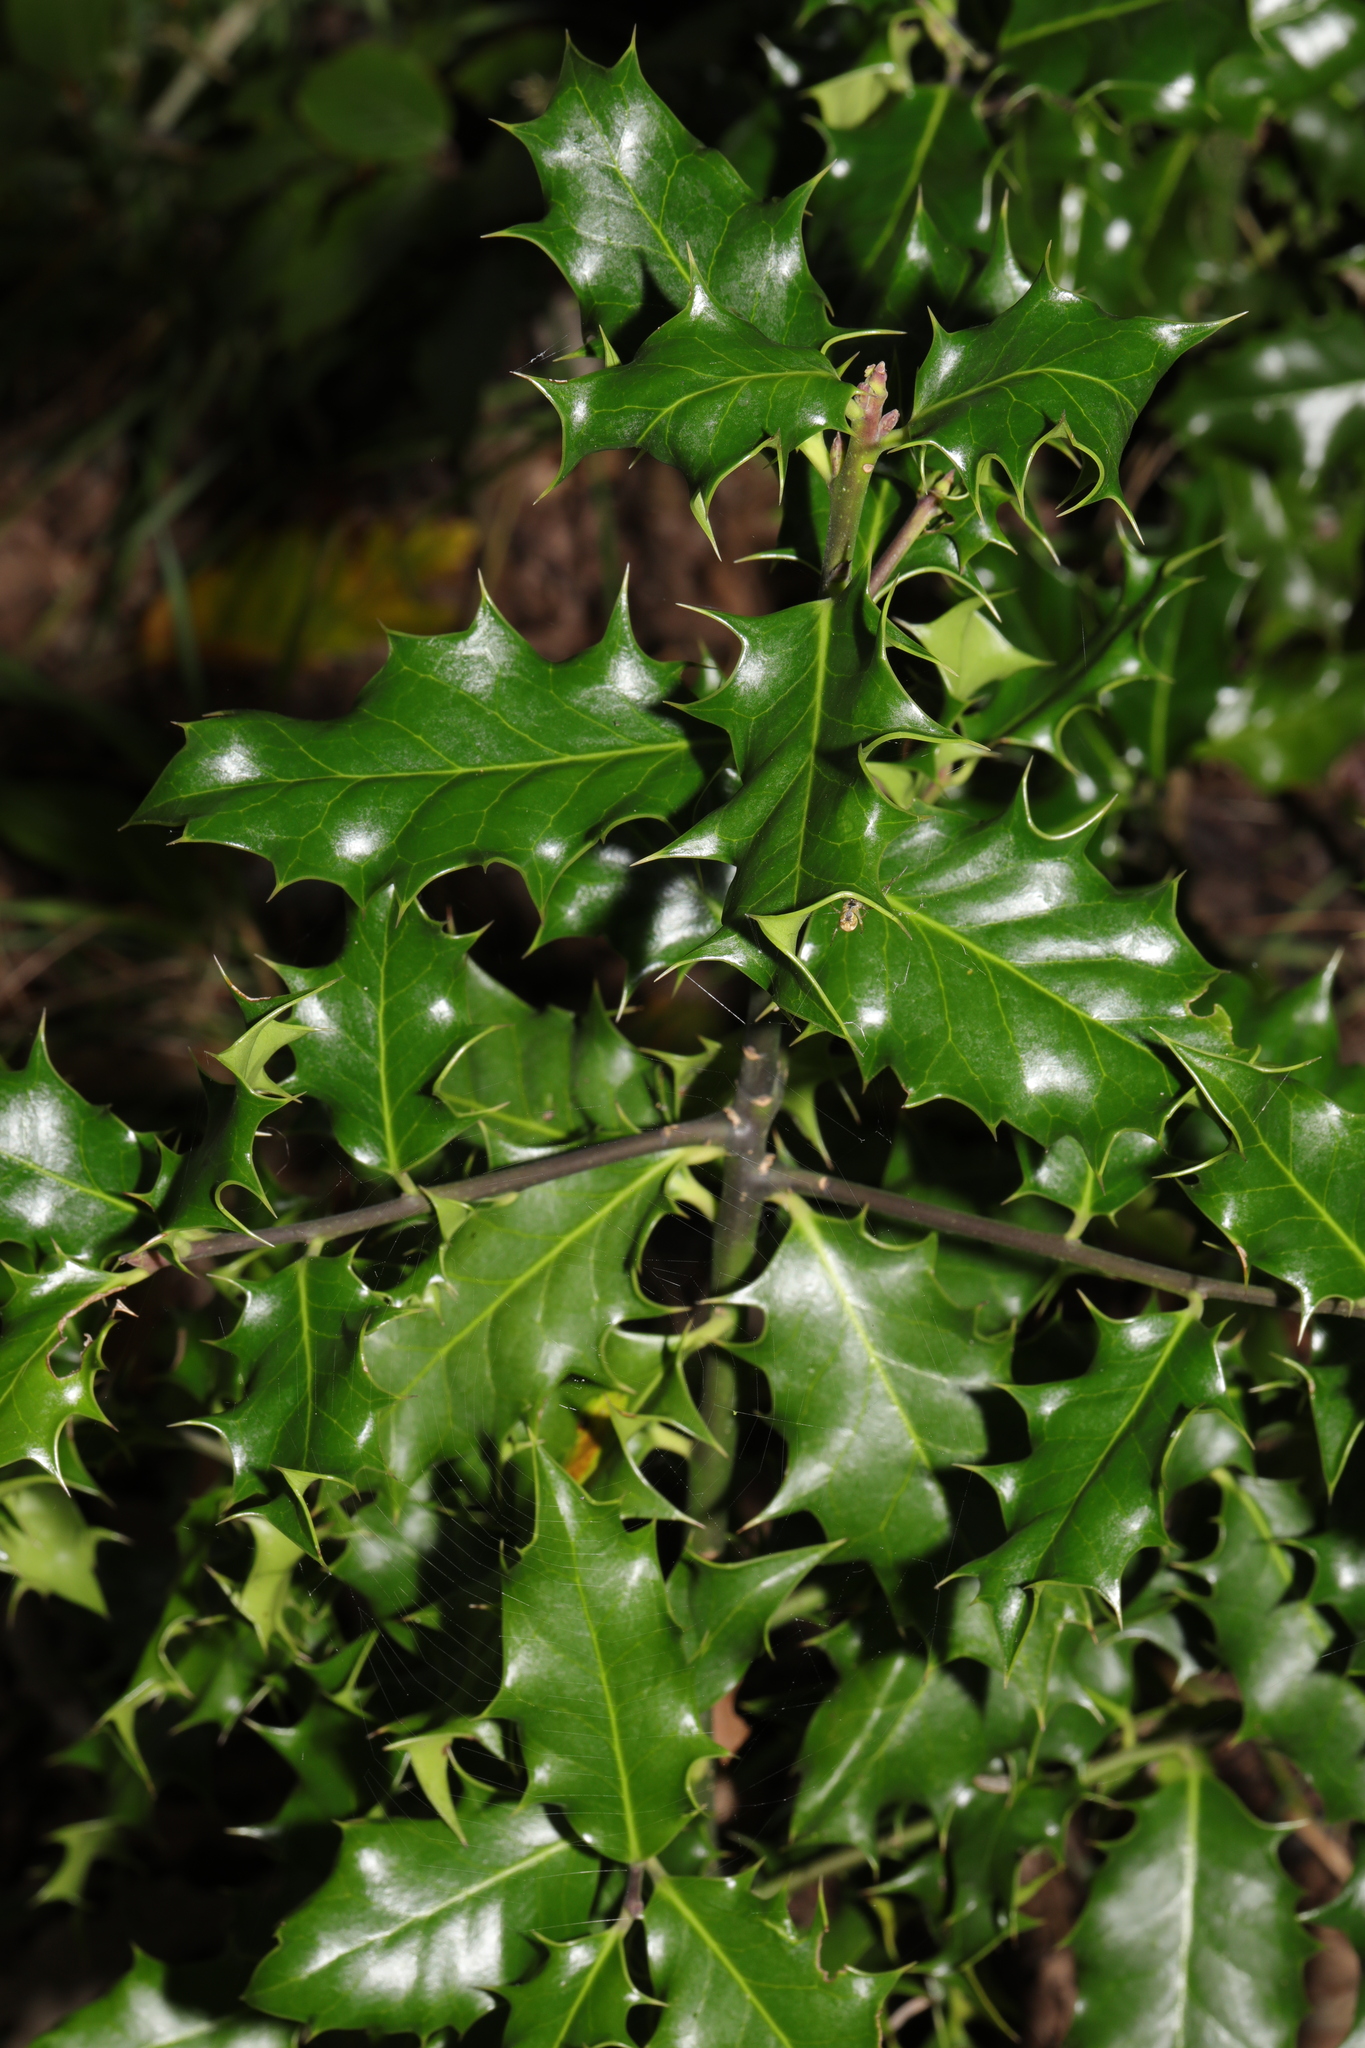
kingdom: Plantae
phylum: Tracheophyta
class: Magnoliopsida
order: Aquifoliales
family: Aquifoliaceae
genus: Ilex
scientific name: Ilex aquifolium
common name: English holly
